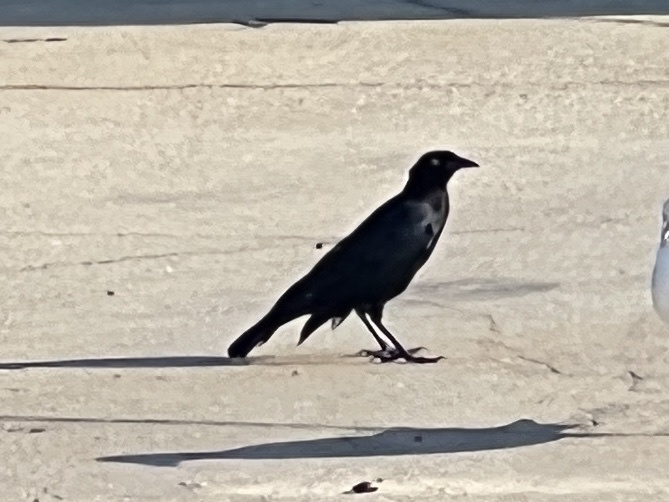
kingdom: Animalia
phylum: Chordata
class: Aves
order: Passeriformes
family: Icteridae
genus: Quiscalus
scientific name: Quiscalus mexicanus
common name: Great-tailed grackle
